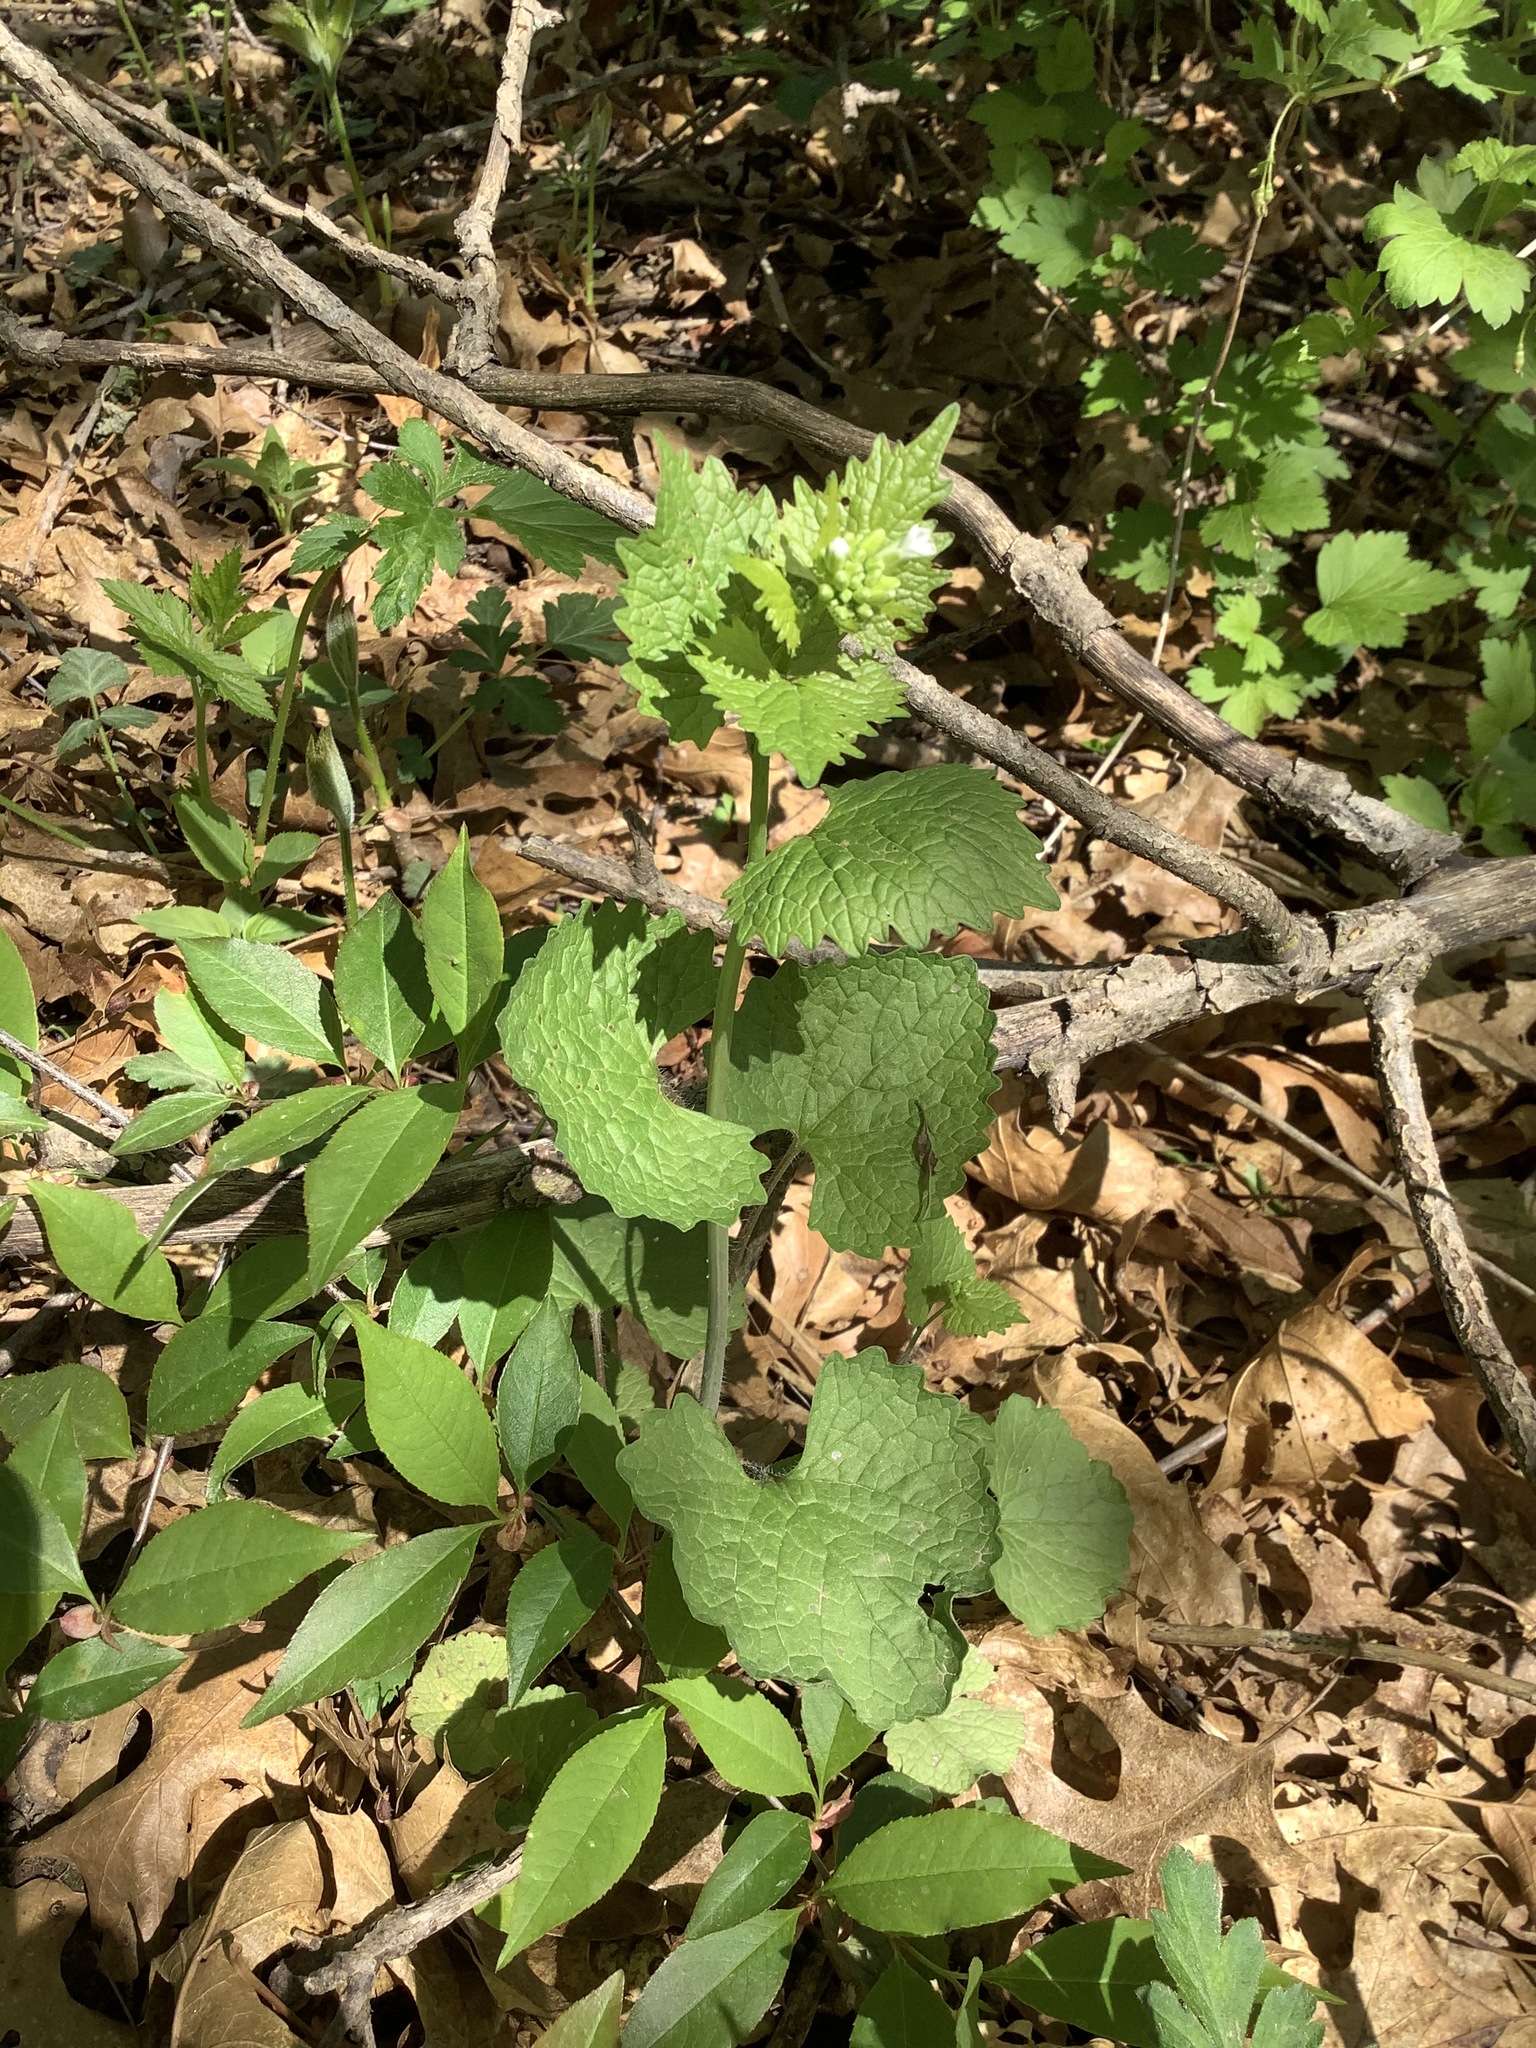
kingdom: Plantae
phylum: Tracheophyta
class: Magnoliopsida
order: Brassicales
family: Brassicaceae
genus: Alliaria
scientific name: Alliaria petiolata
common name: Garlic mustard
